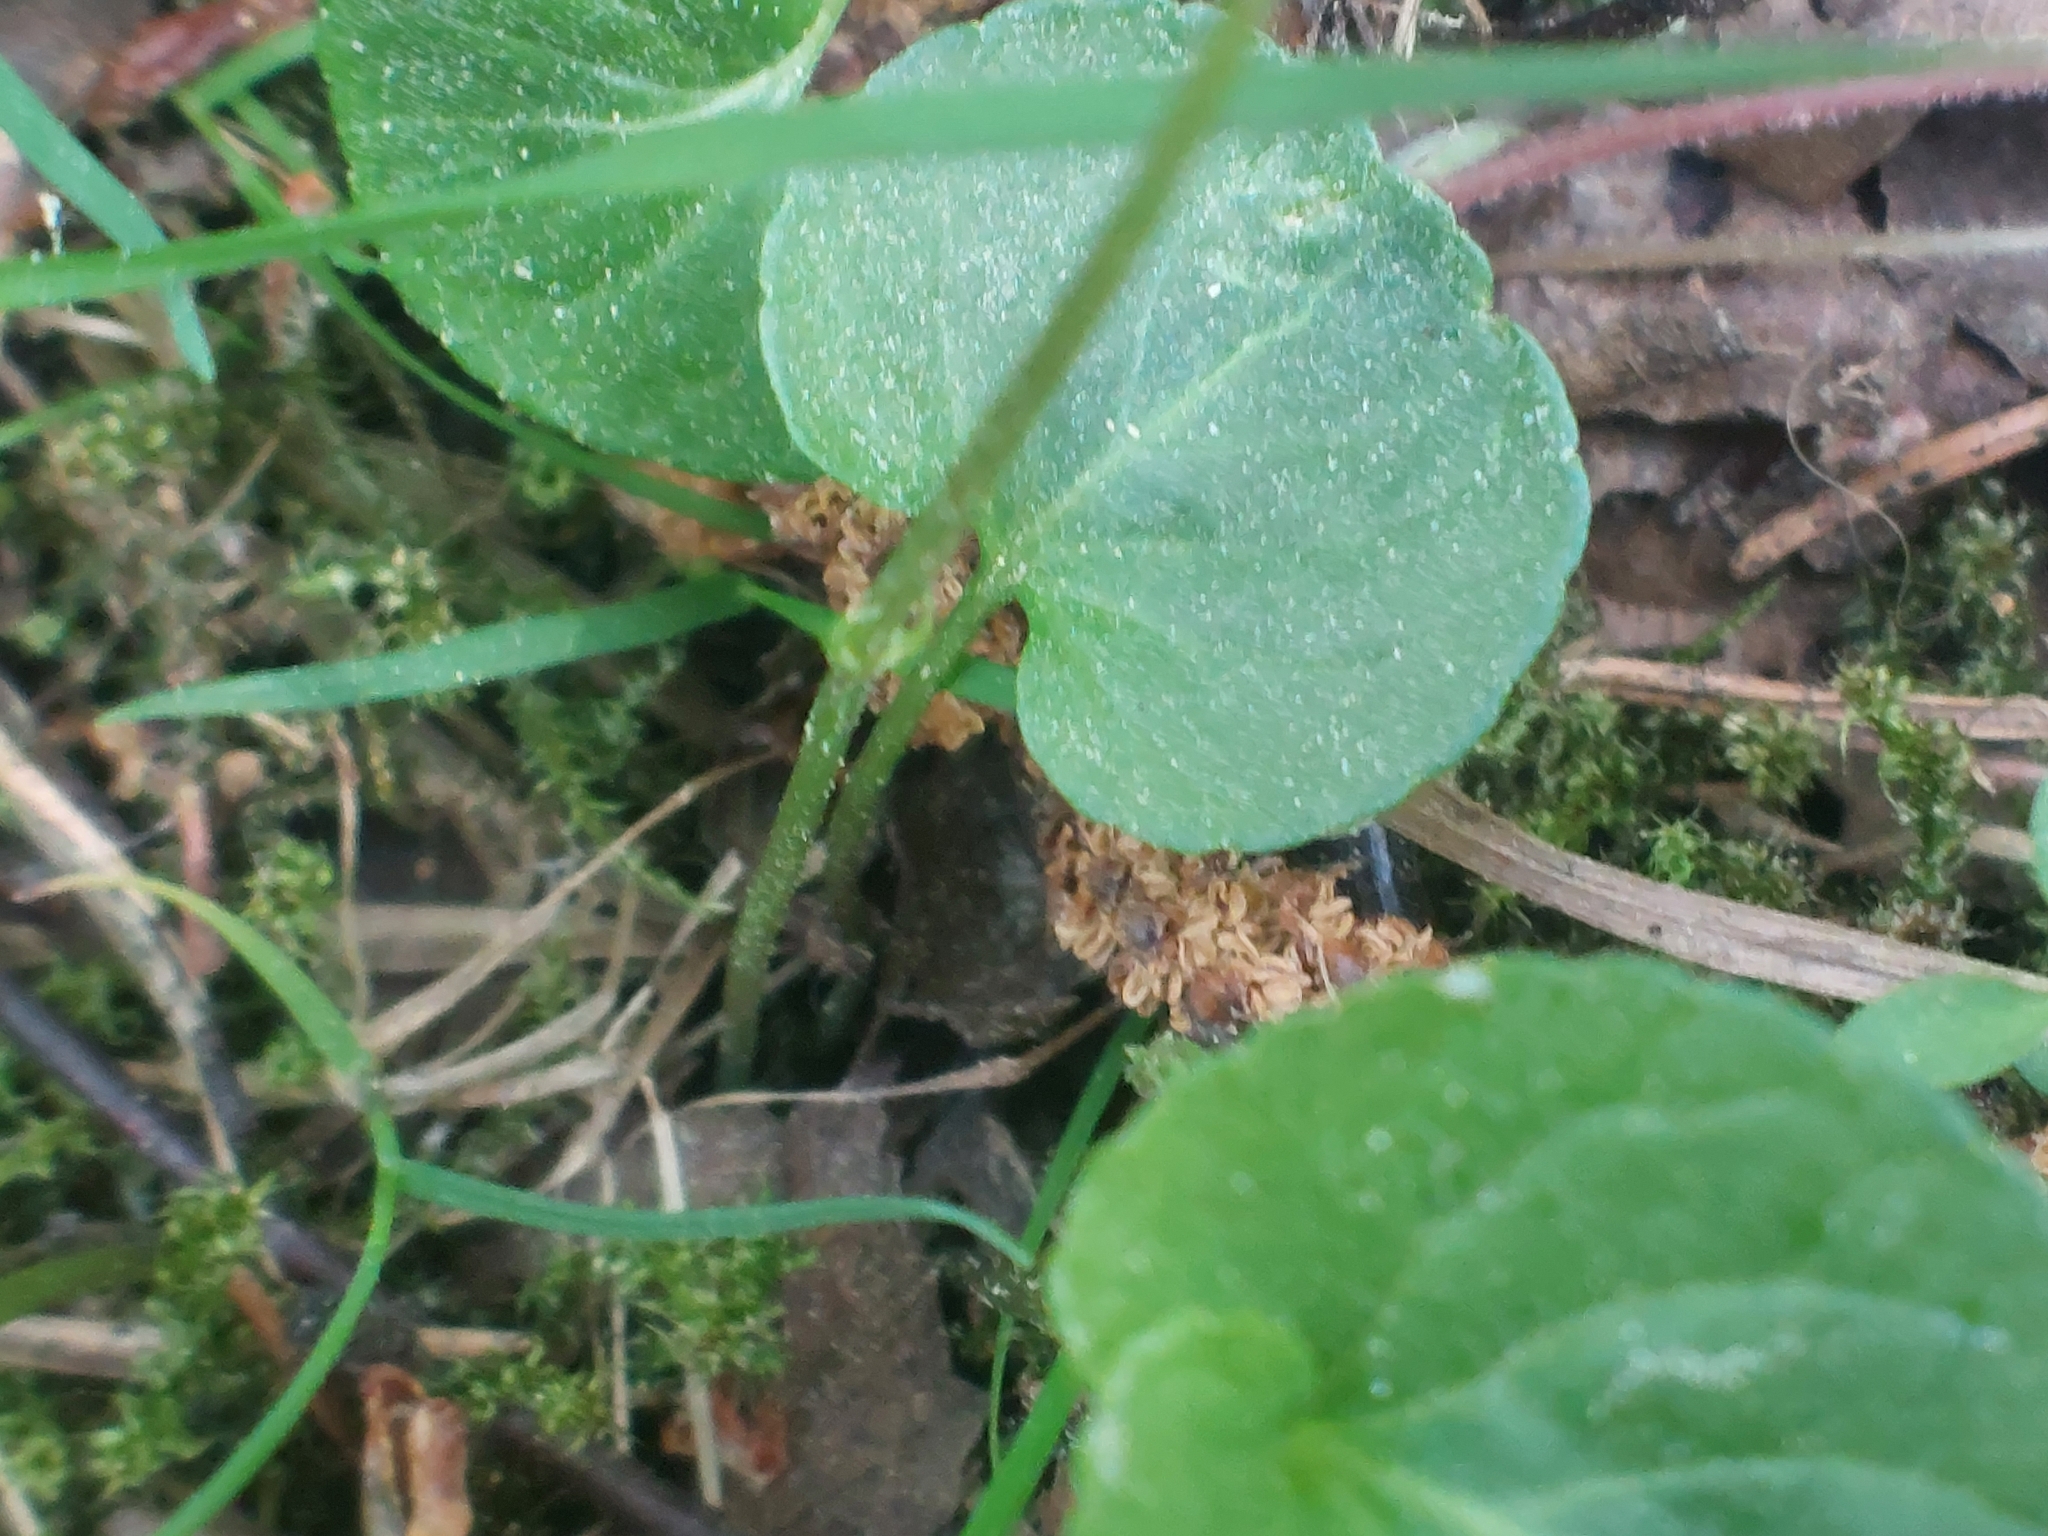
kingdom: Plantae
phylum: Tracheophyta
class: Magnoliopsida
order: Malpighiales
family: Violaceae
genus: Viola
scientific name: Viola palustris
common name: Marsh violet
